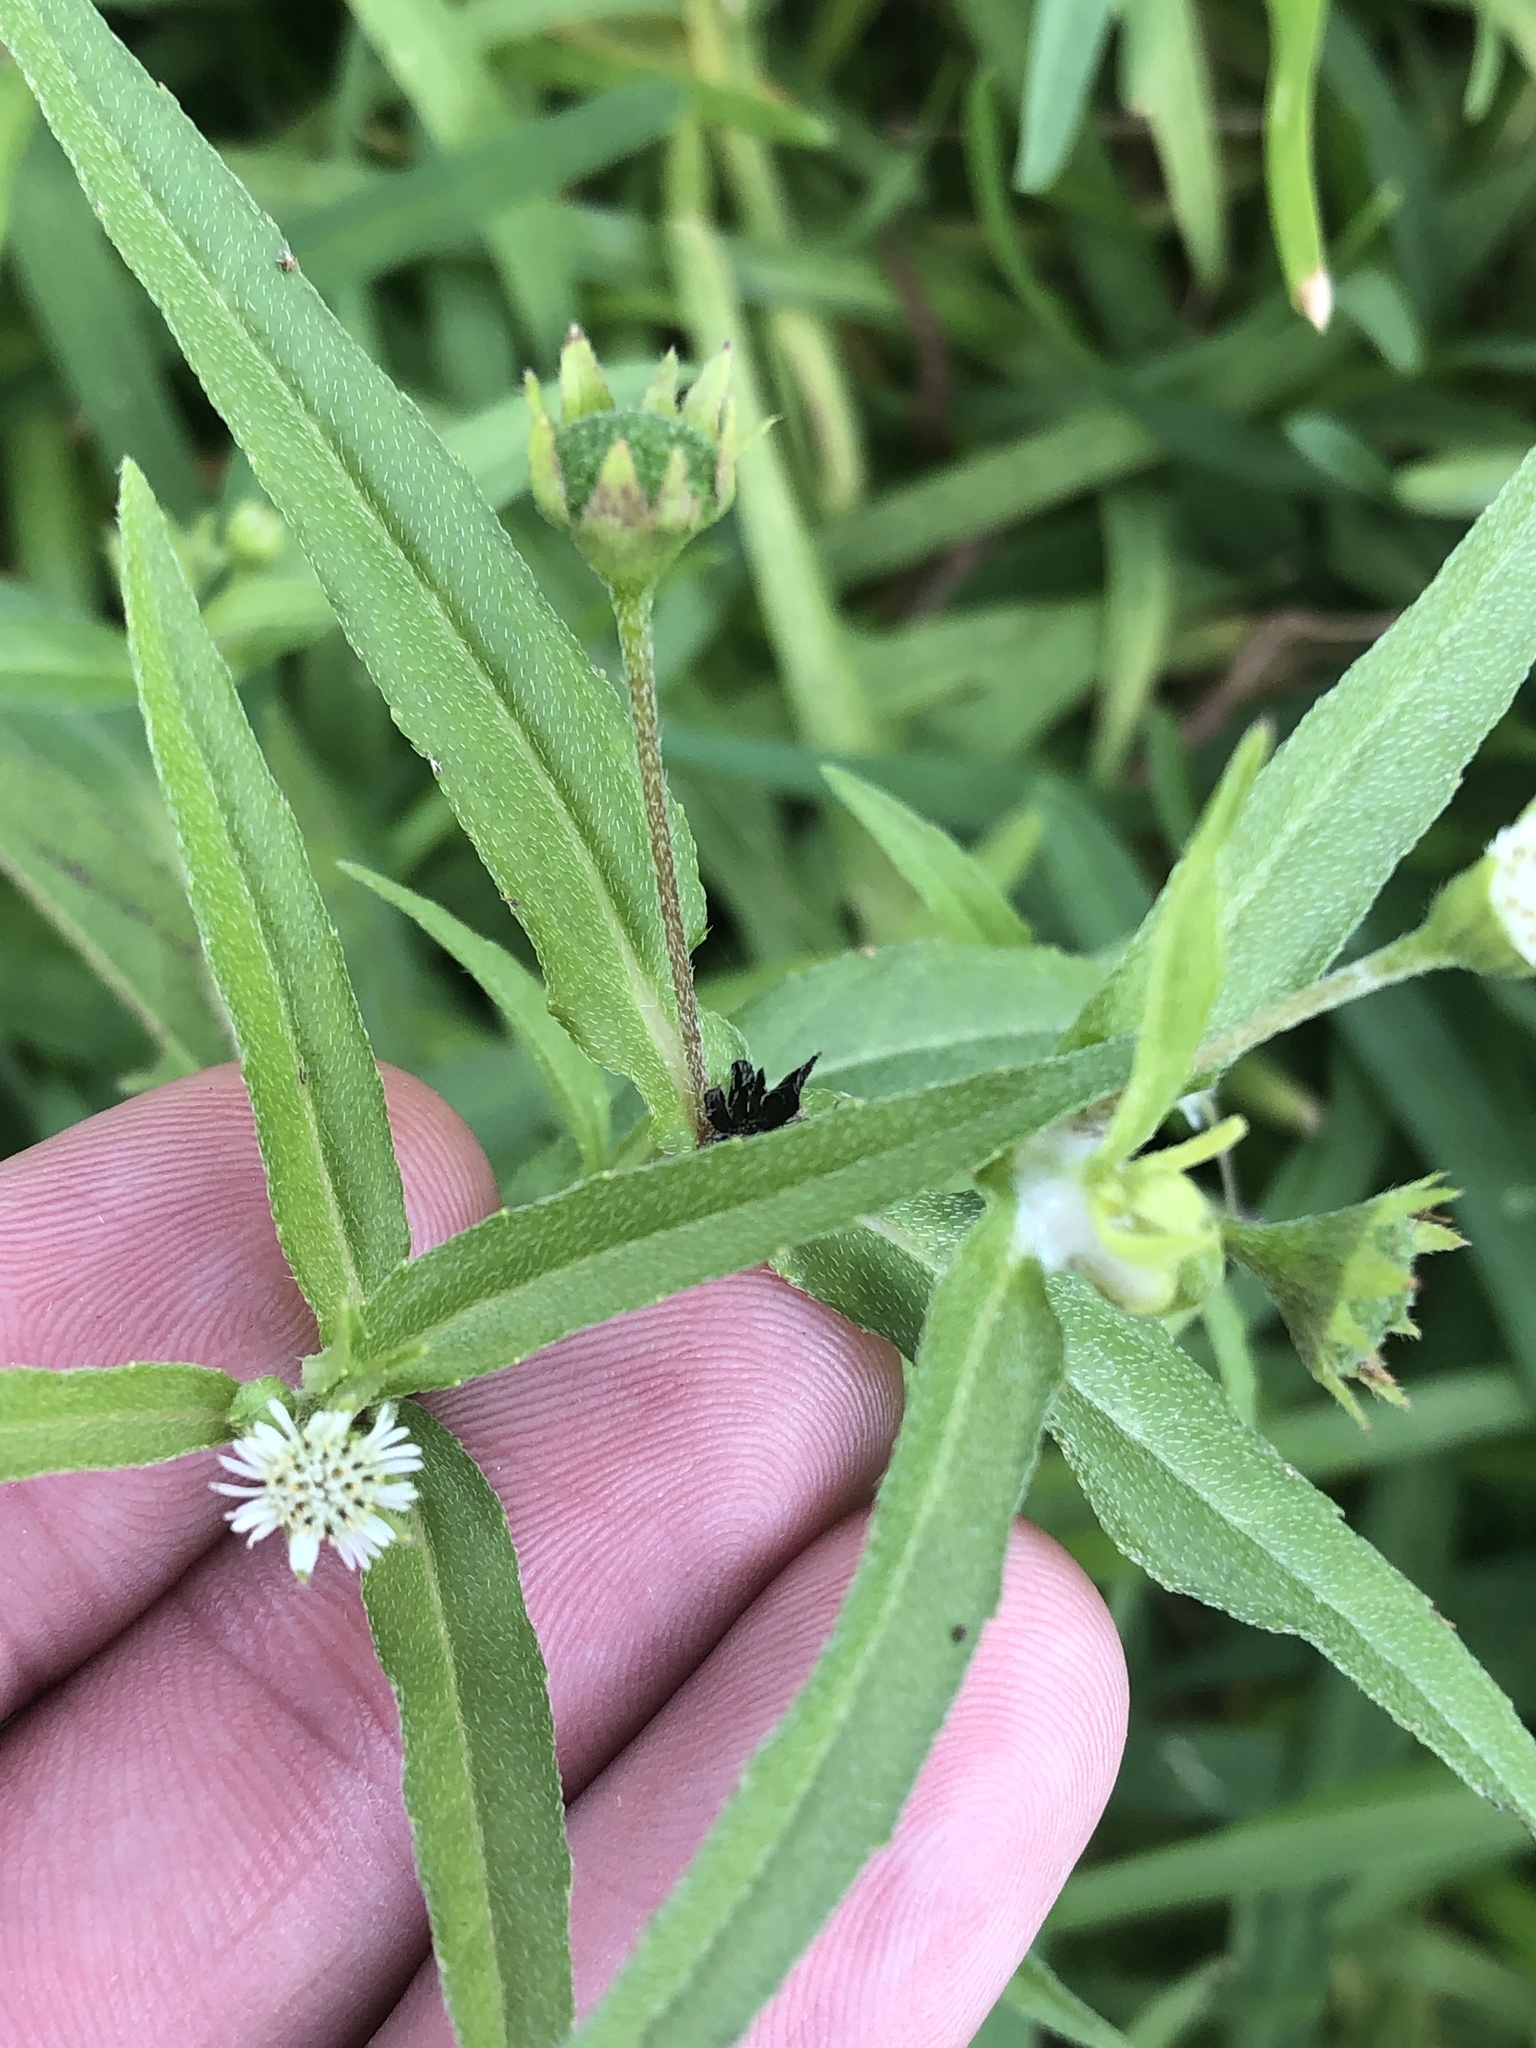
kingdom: Plantae
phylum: Tracheophyta
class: Magnoliopsida
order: Asterales
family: Asteraceae
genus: Eclipta
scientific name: Eclipta prostrata
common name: False daisy
